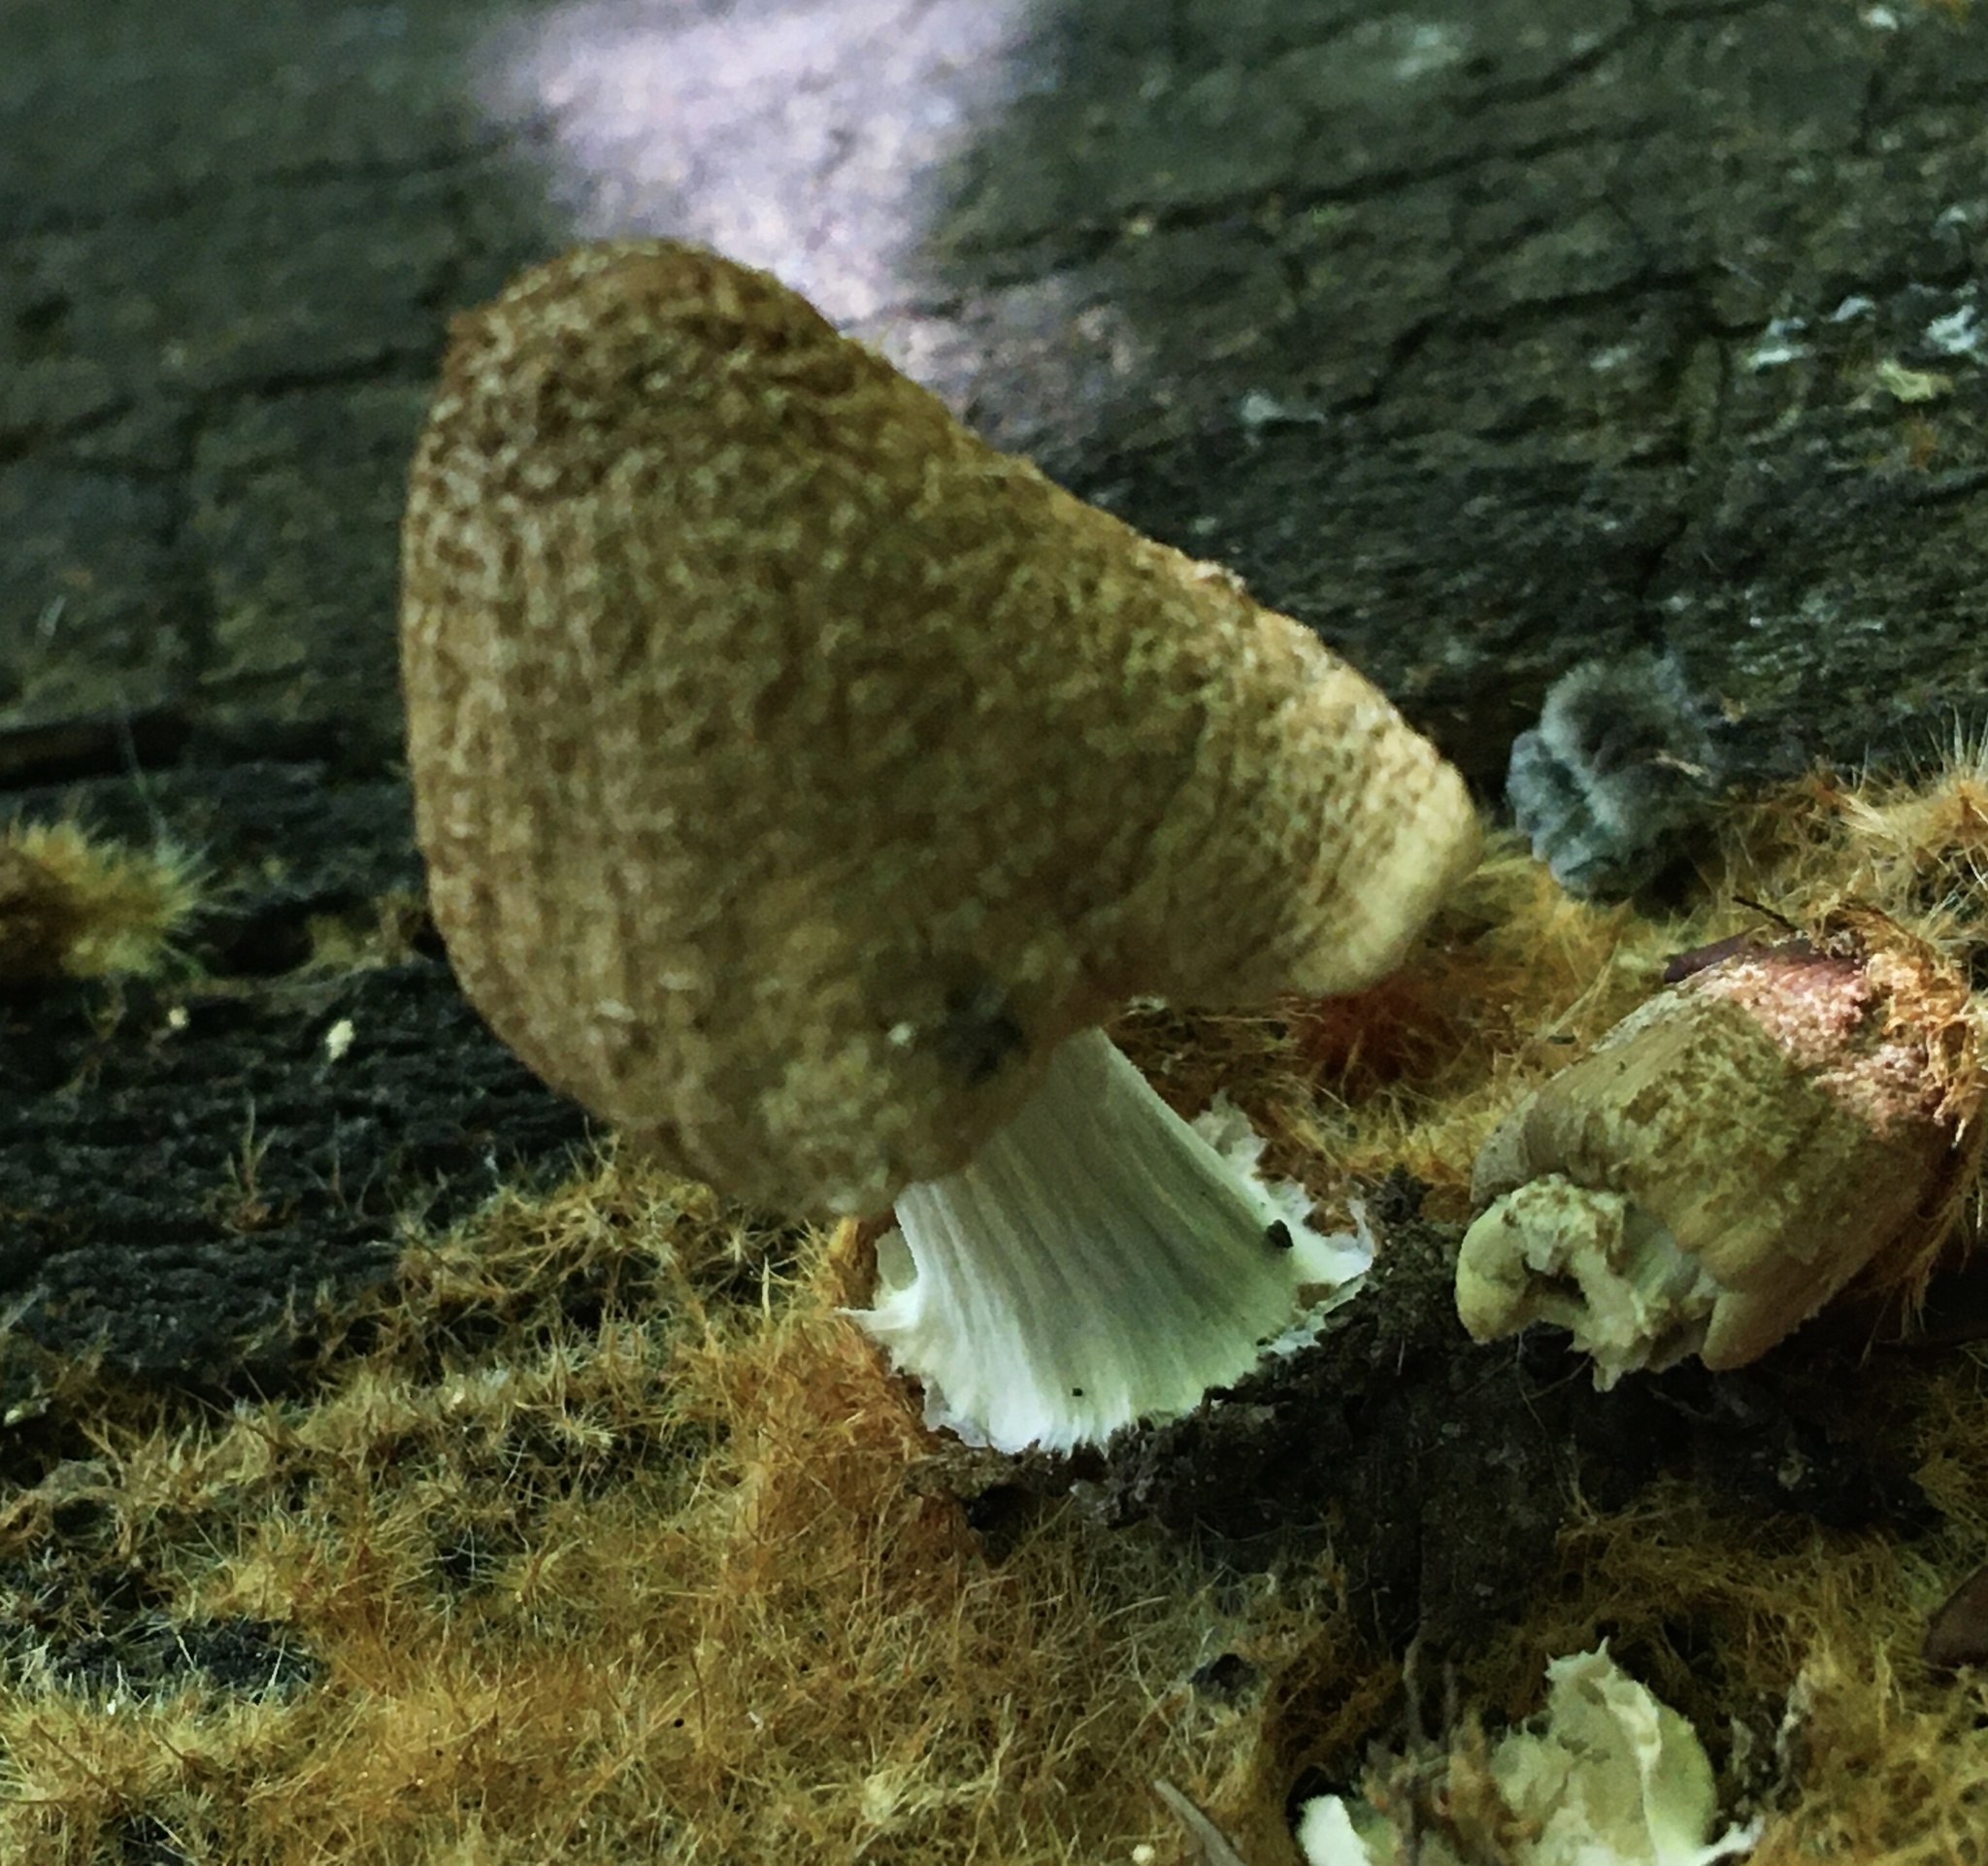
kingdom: Fungi
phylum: Basidiomycota
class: Agaricomycetes
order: Agaricales
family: Psathyrellaceae
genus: Coprinellus
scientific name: Coprinellus domesticus
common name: Firerug inkcap
